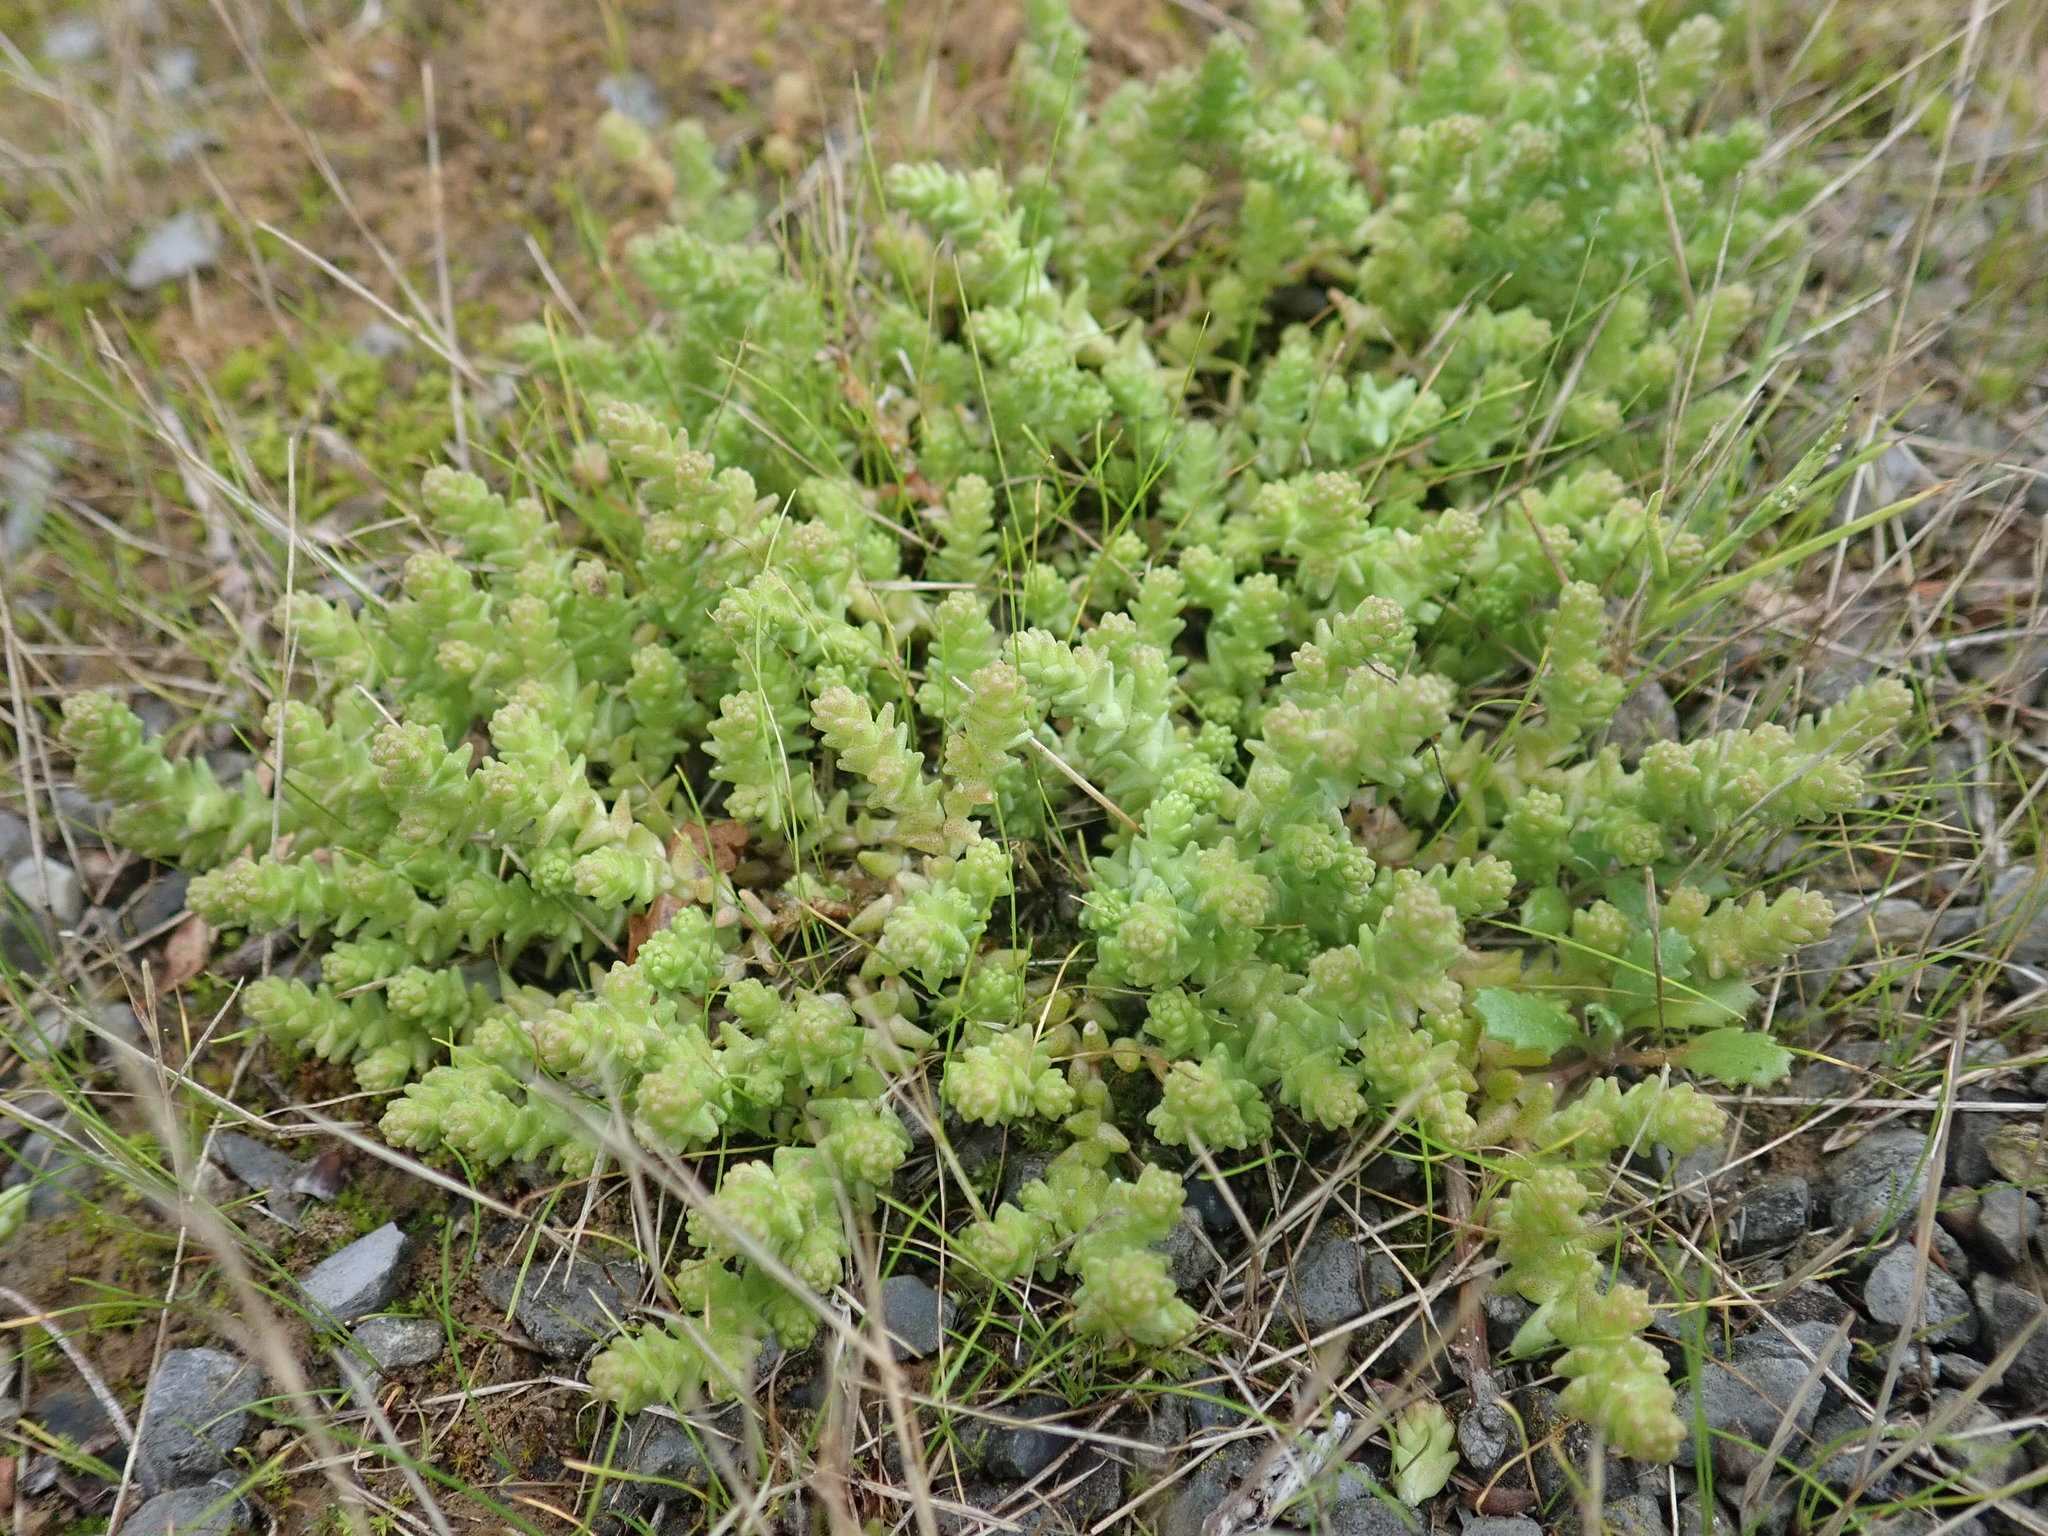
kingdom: Plantae
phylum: Tracheophyta
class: Magnoliopsida
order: Saxifragales
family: Crassulaceae
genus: Sedum
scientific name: Sedum acre
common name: Biting stonecrop
